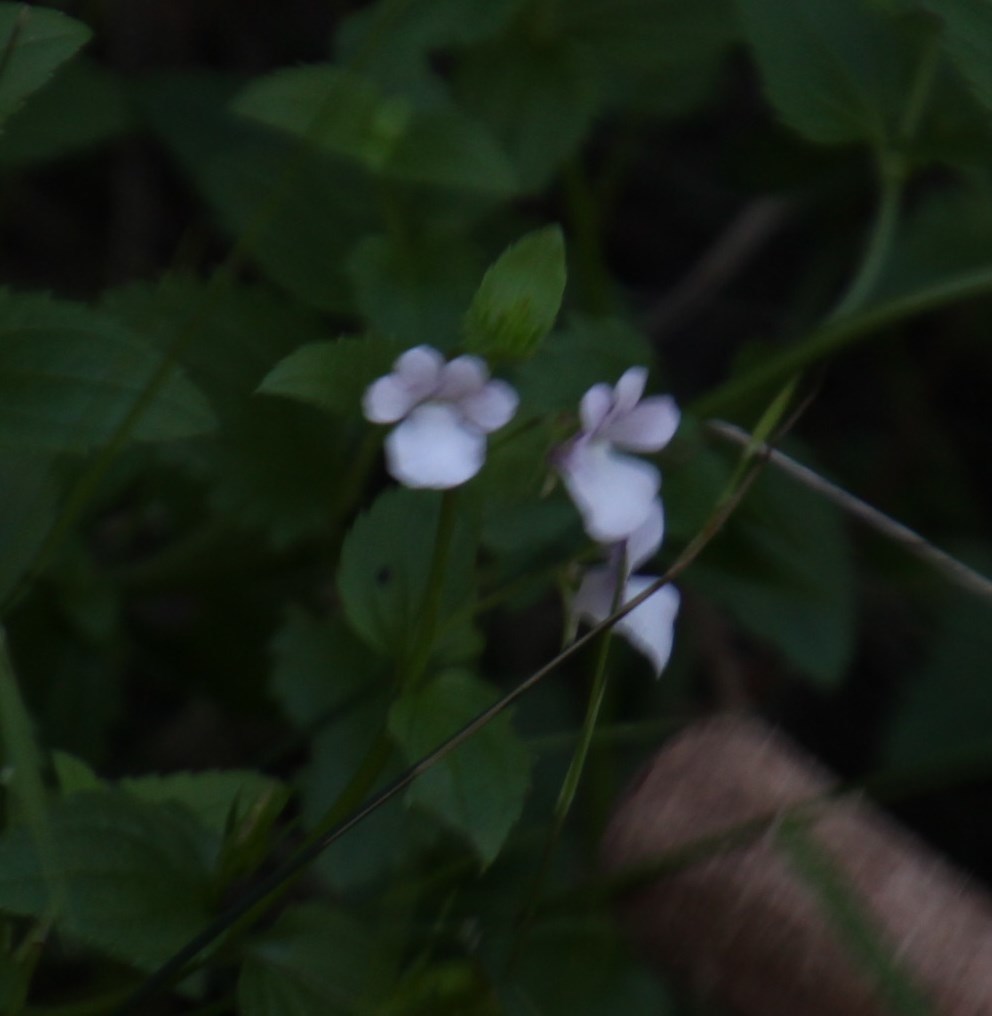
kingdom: Plantae
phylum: Tracheophyta
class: Magnoliopsida
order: Lamiales
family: Scrophulariaceae
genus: Nemesia
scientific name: Nemesia macrocarpa
